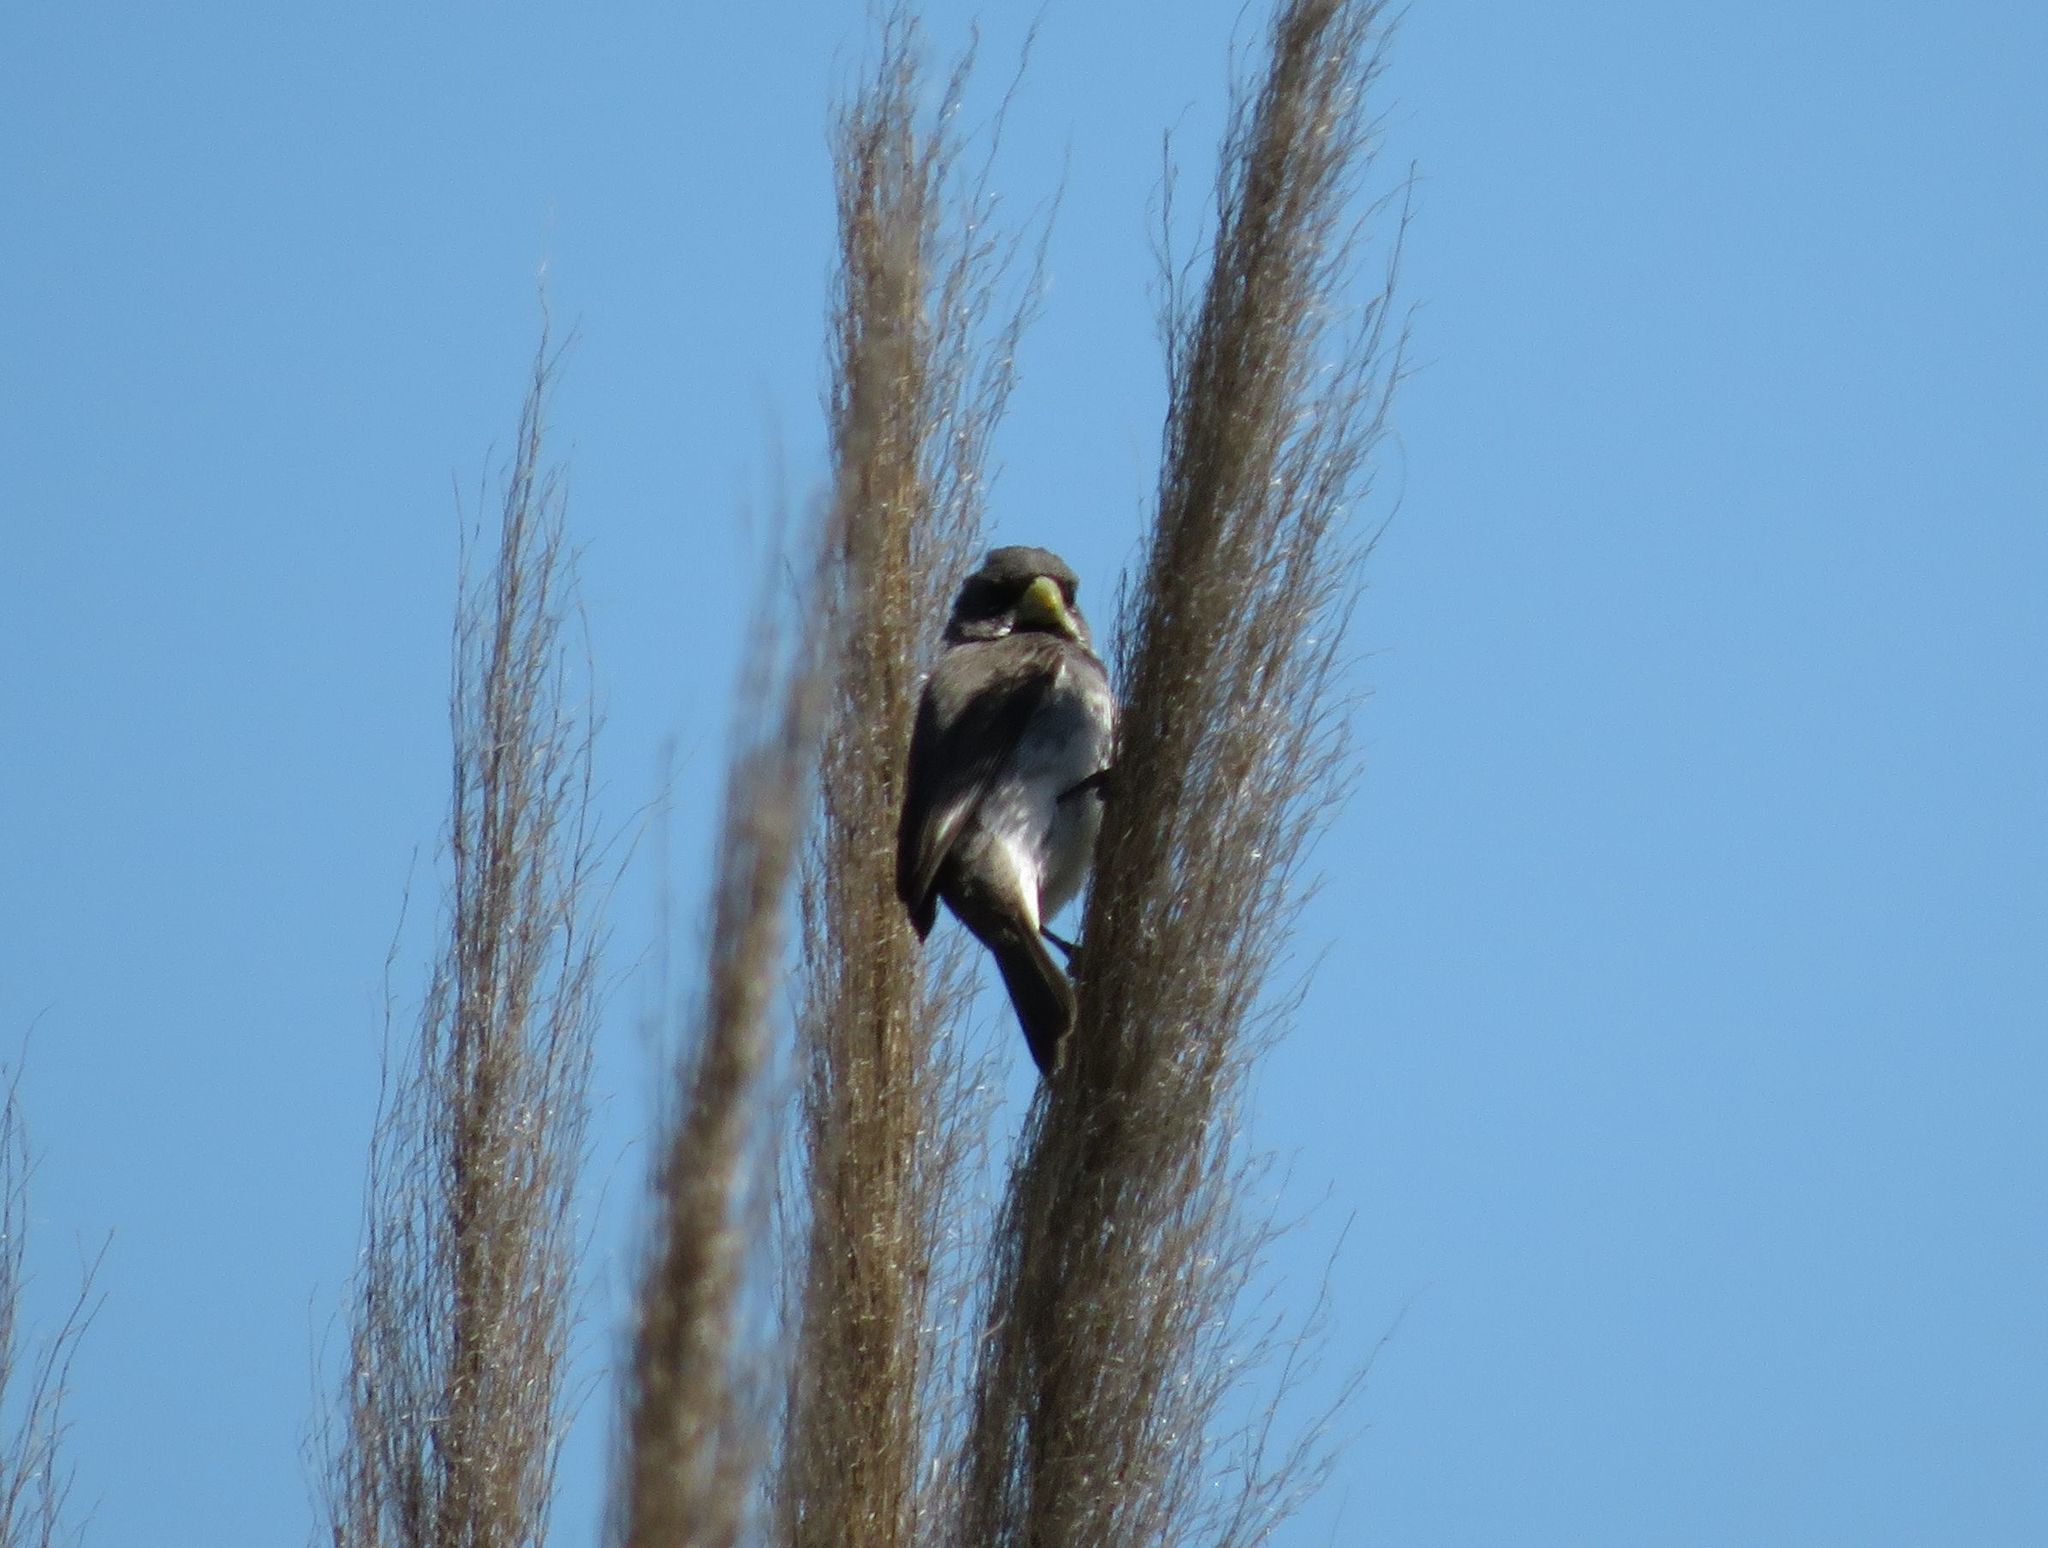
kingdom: Animalia
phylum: Chordata
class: Aves
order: Passeriformes
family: Thraupidae
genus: Sporophila
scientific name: Sporophila caerulescens
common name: Double-collared seedeater
